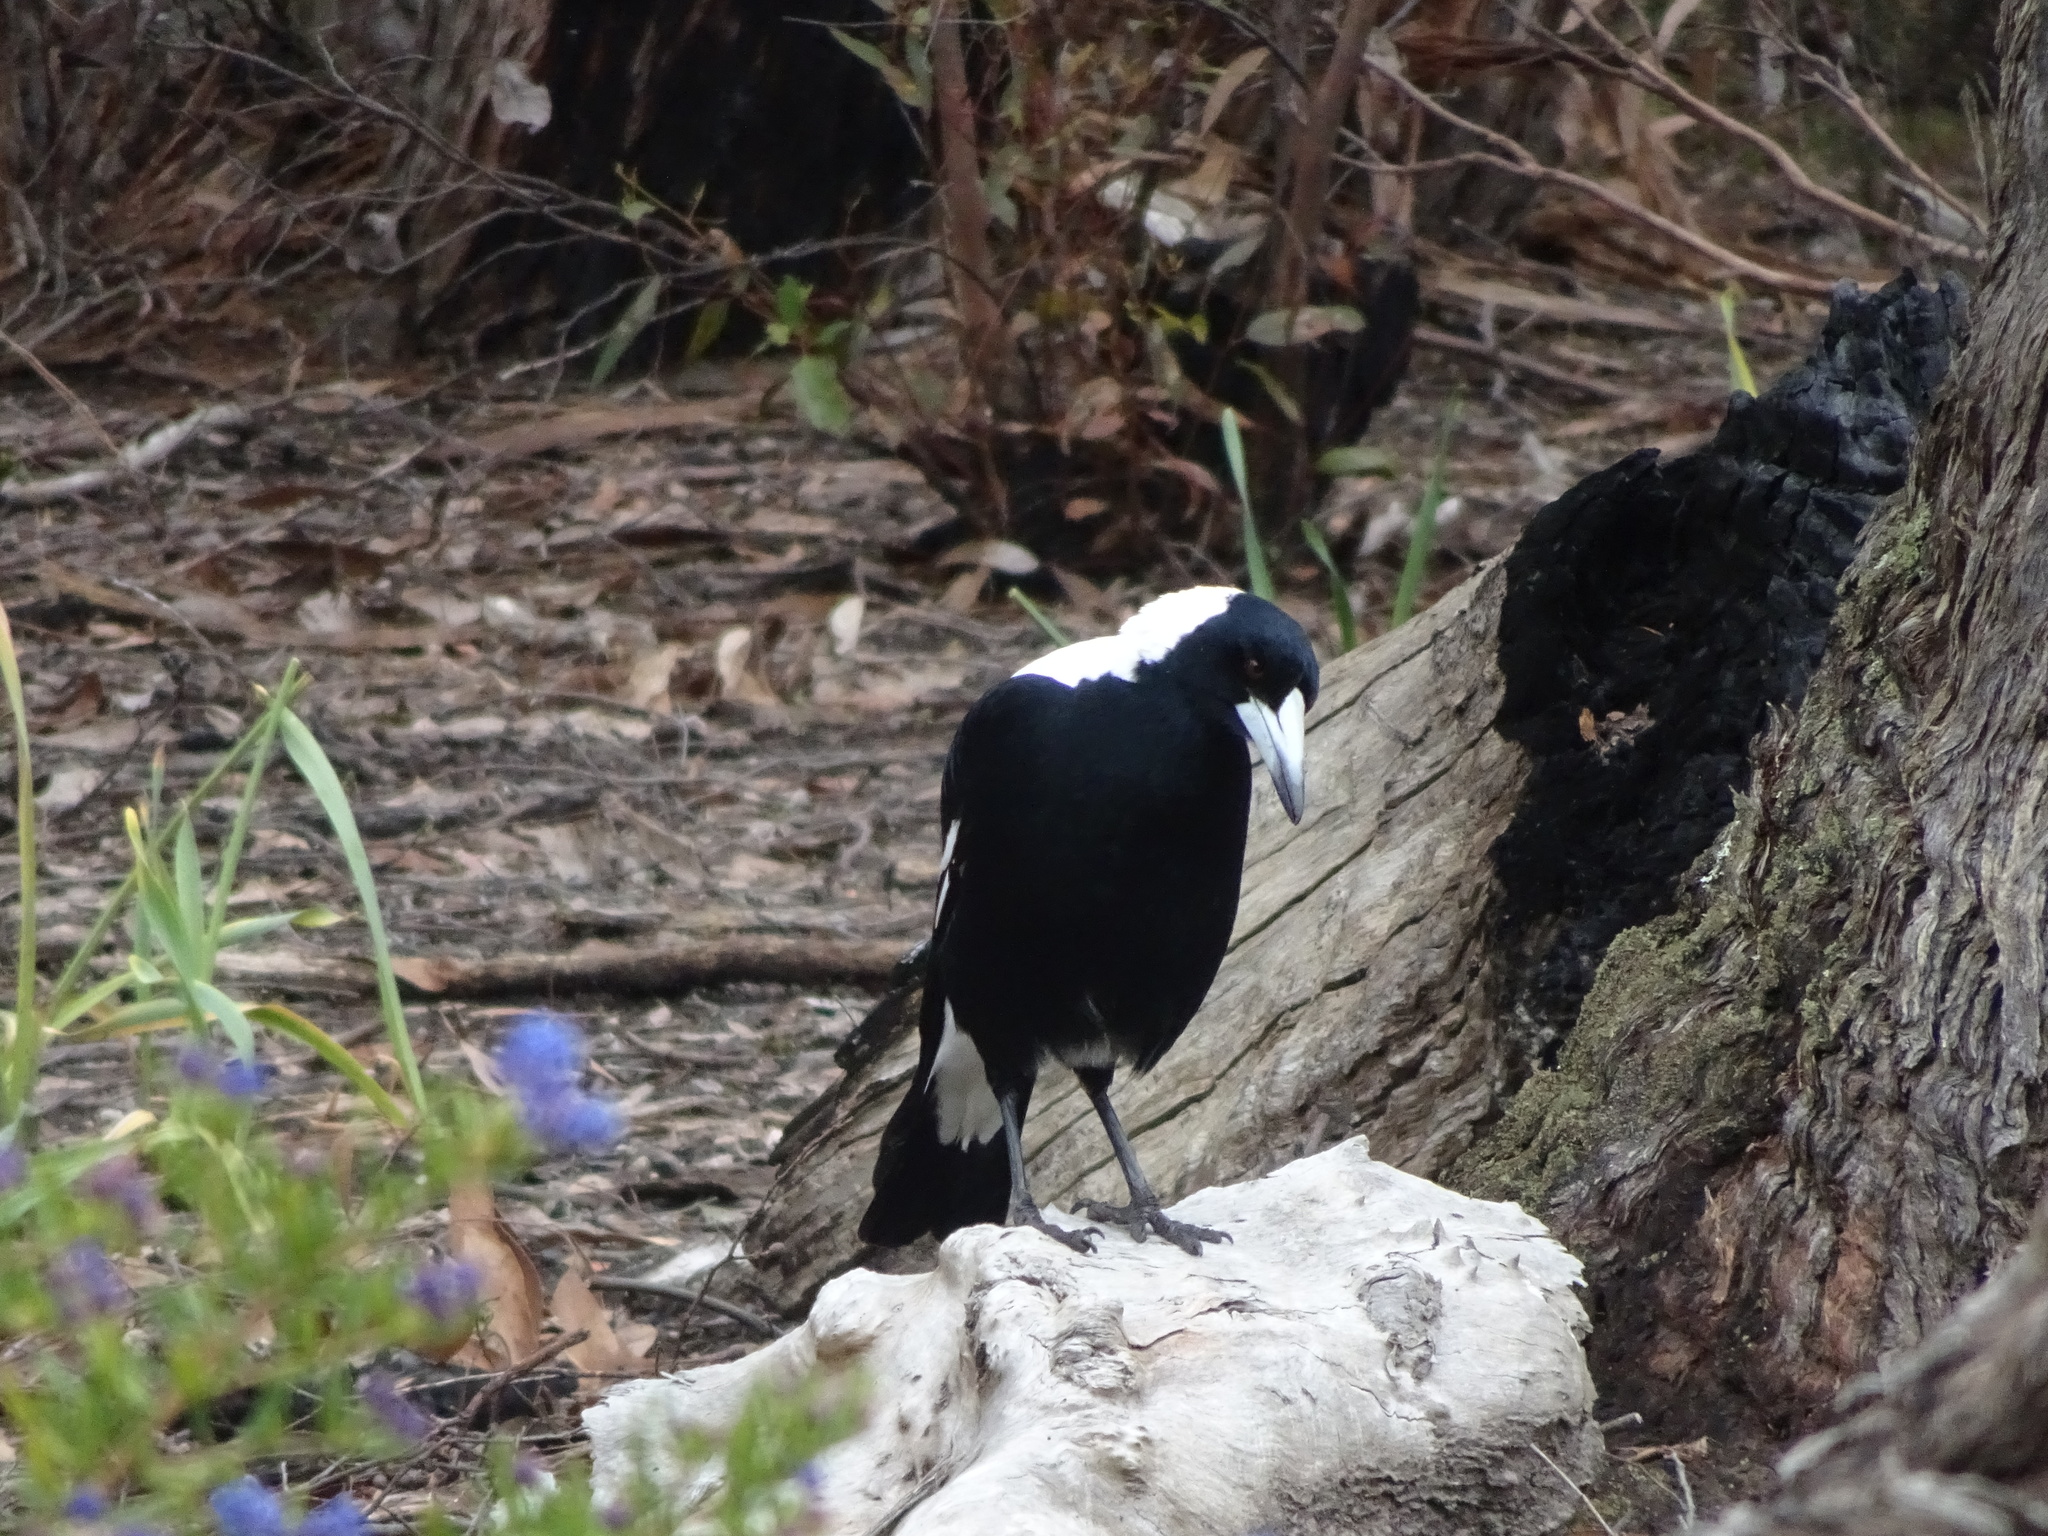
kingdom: Animalia
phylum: Chordata
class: Aves
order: Passeriformes
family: Cracticidae
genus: Gymnorhina
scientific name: Gymnorhina tibicen
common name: Australian magpie
